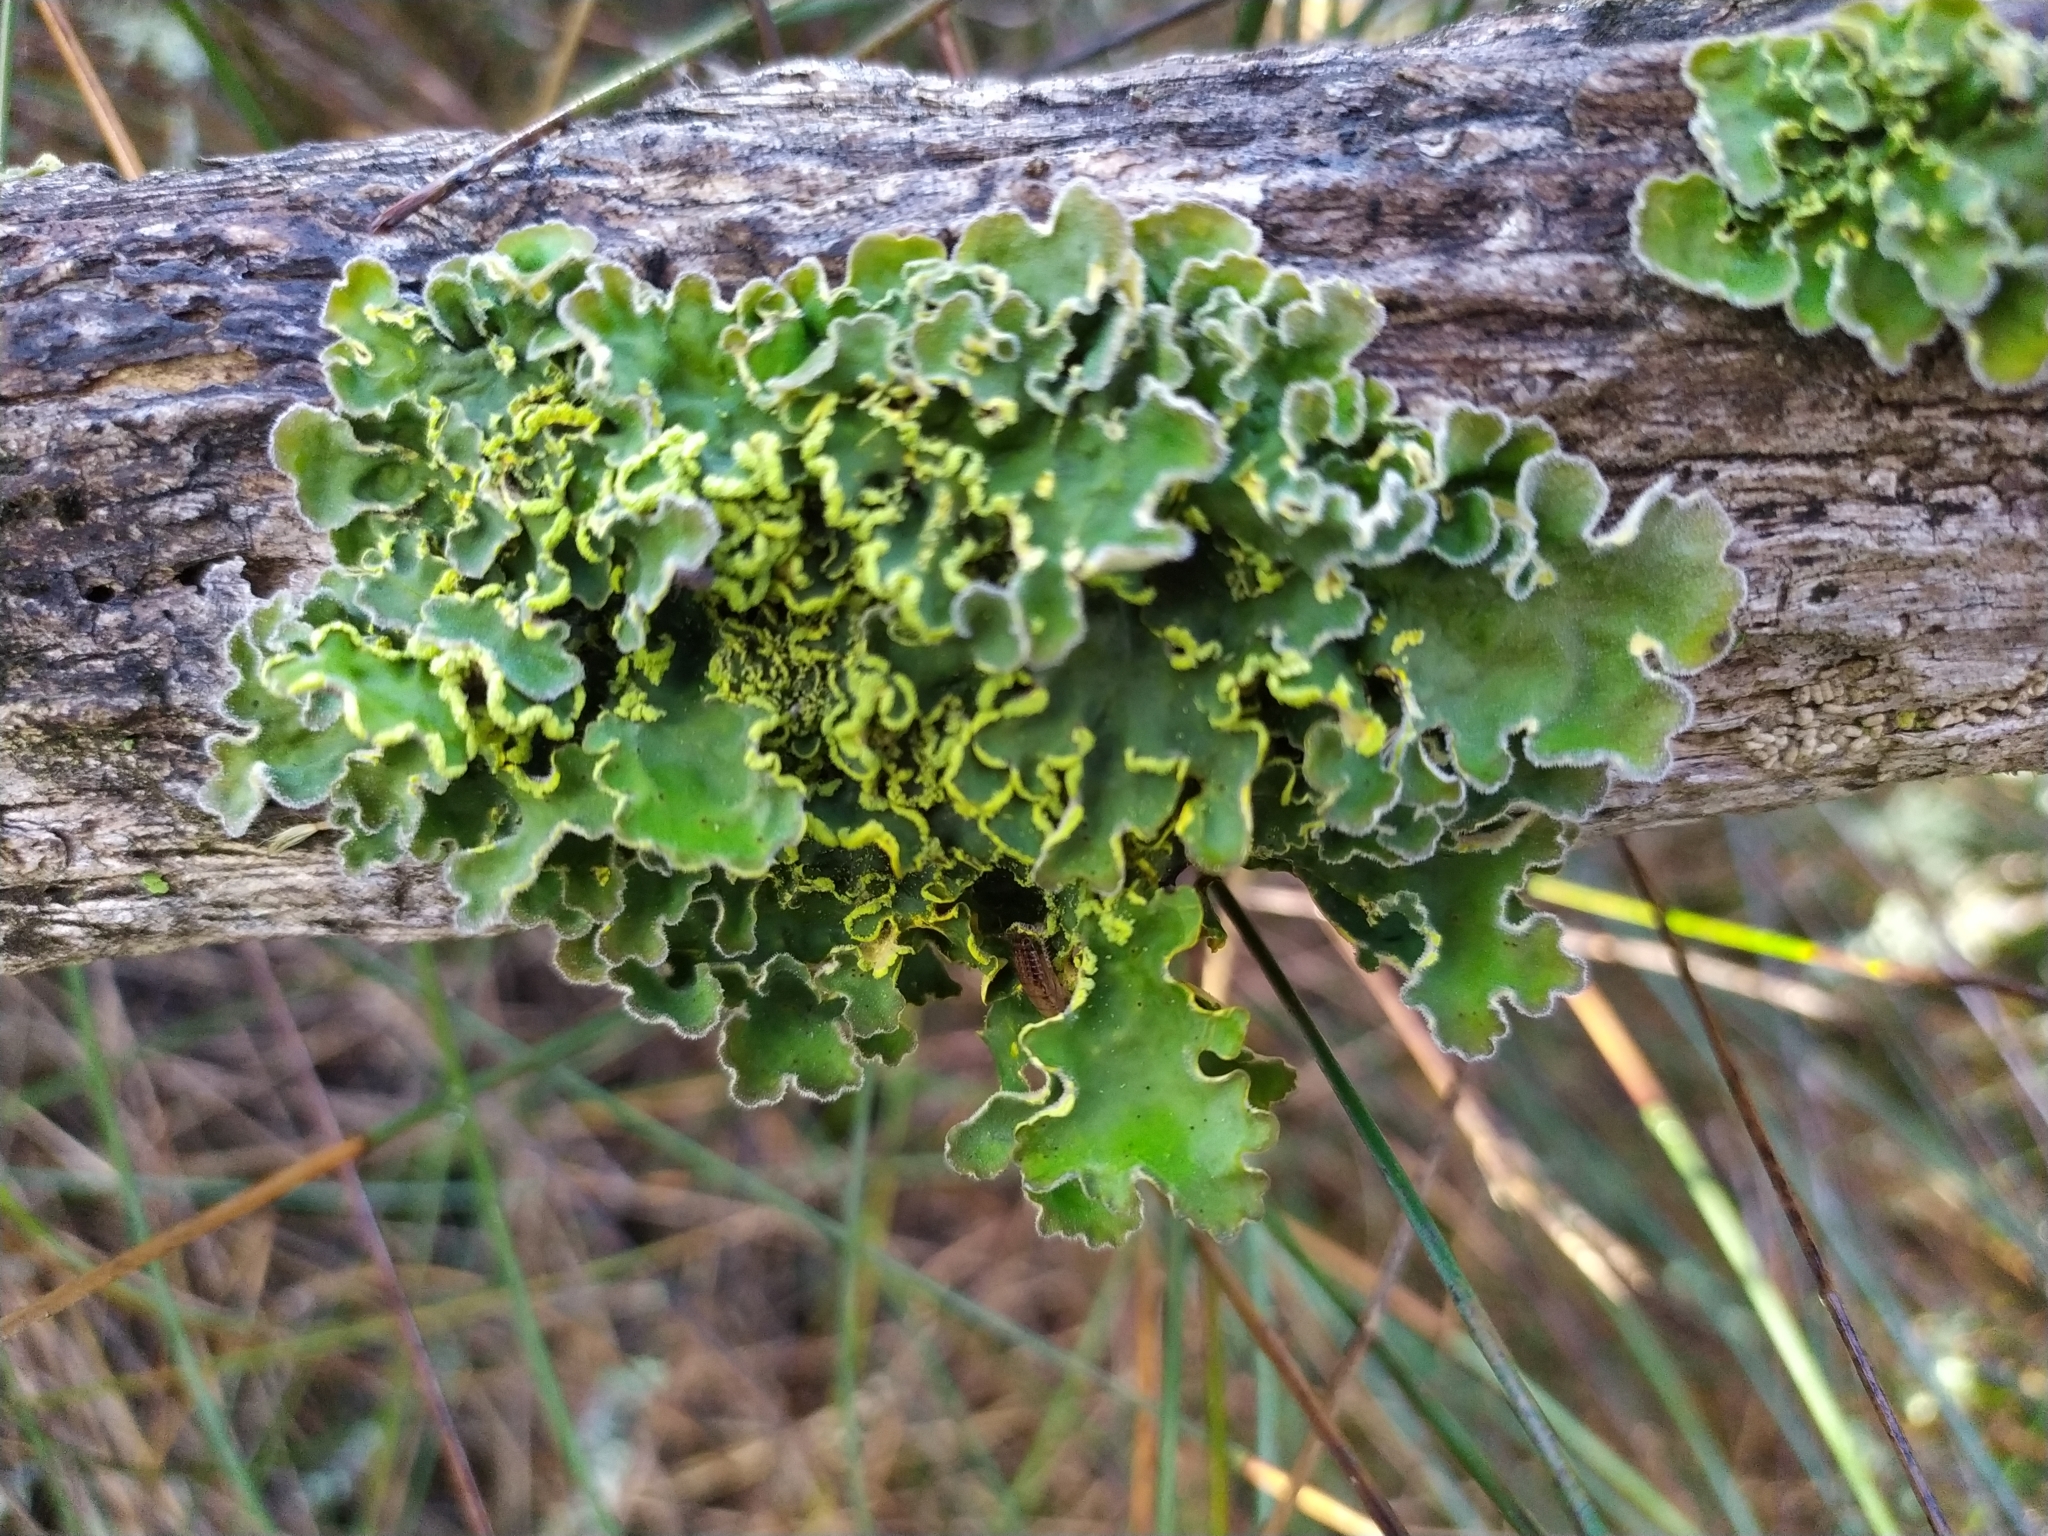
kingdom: Fungi
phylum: Ascomycota
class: Lecanoromycetes
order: Peltigerales
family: Lobariaceae
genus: Pseudocyphellaria
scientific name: Pseudocyphellaria aurata
